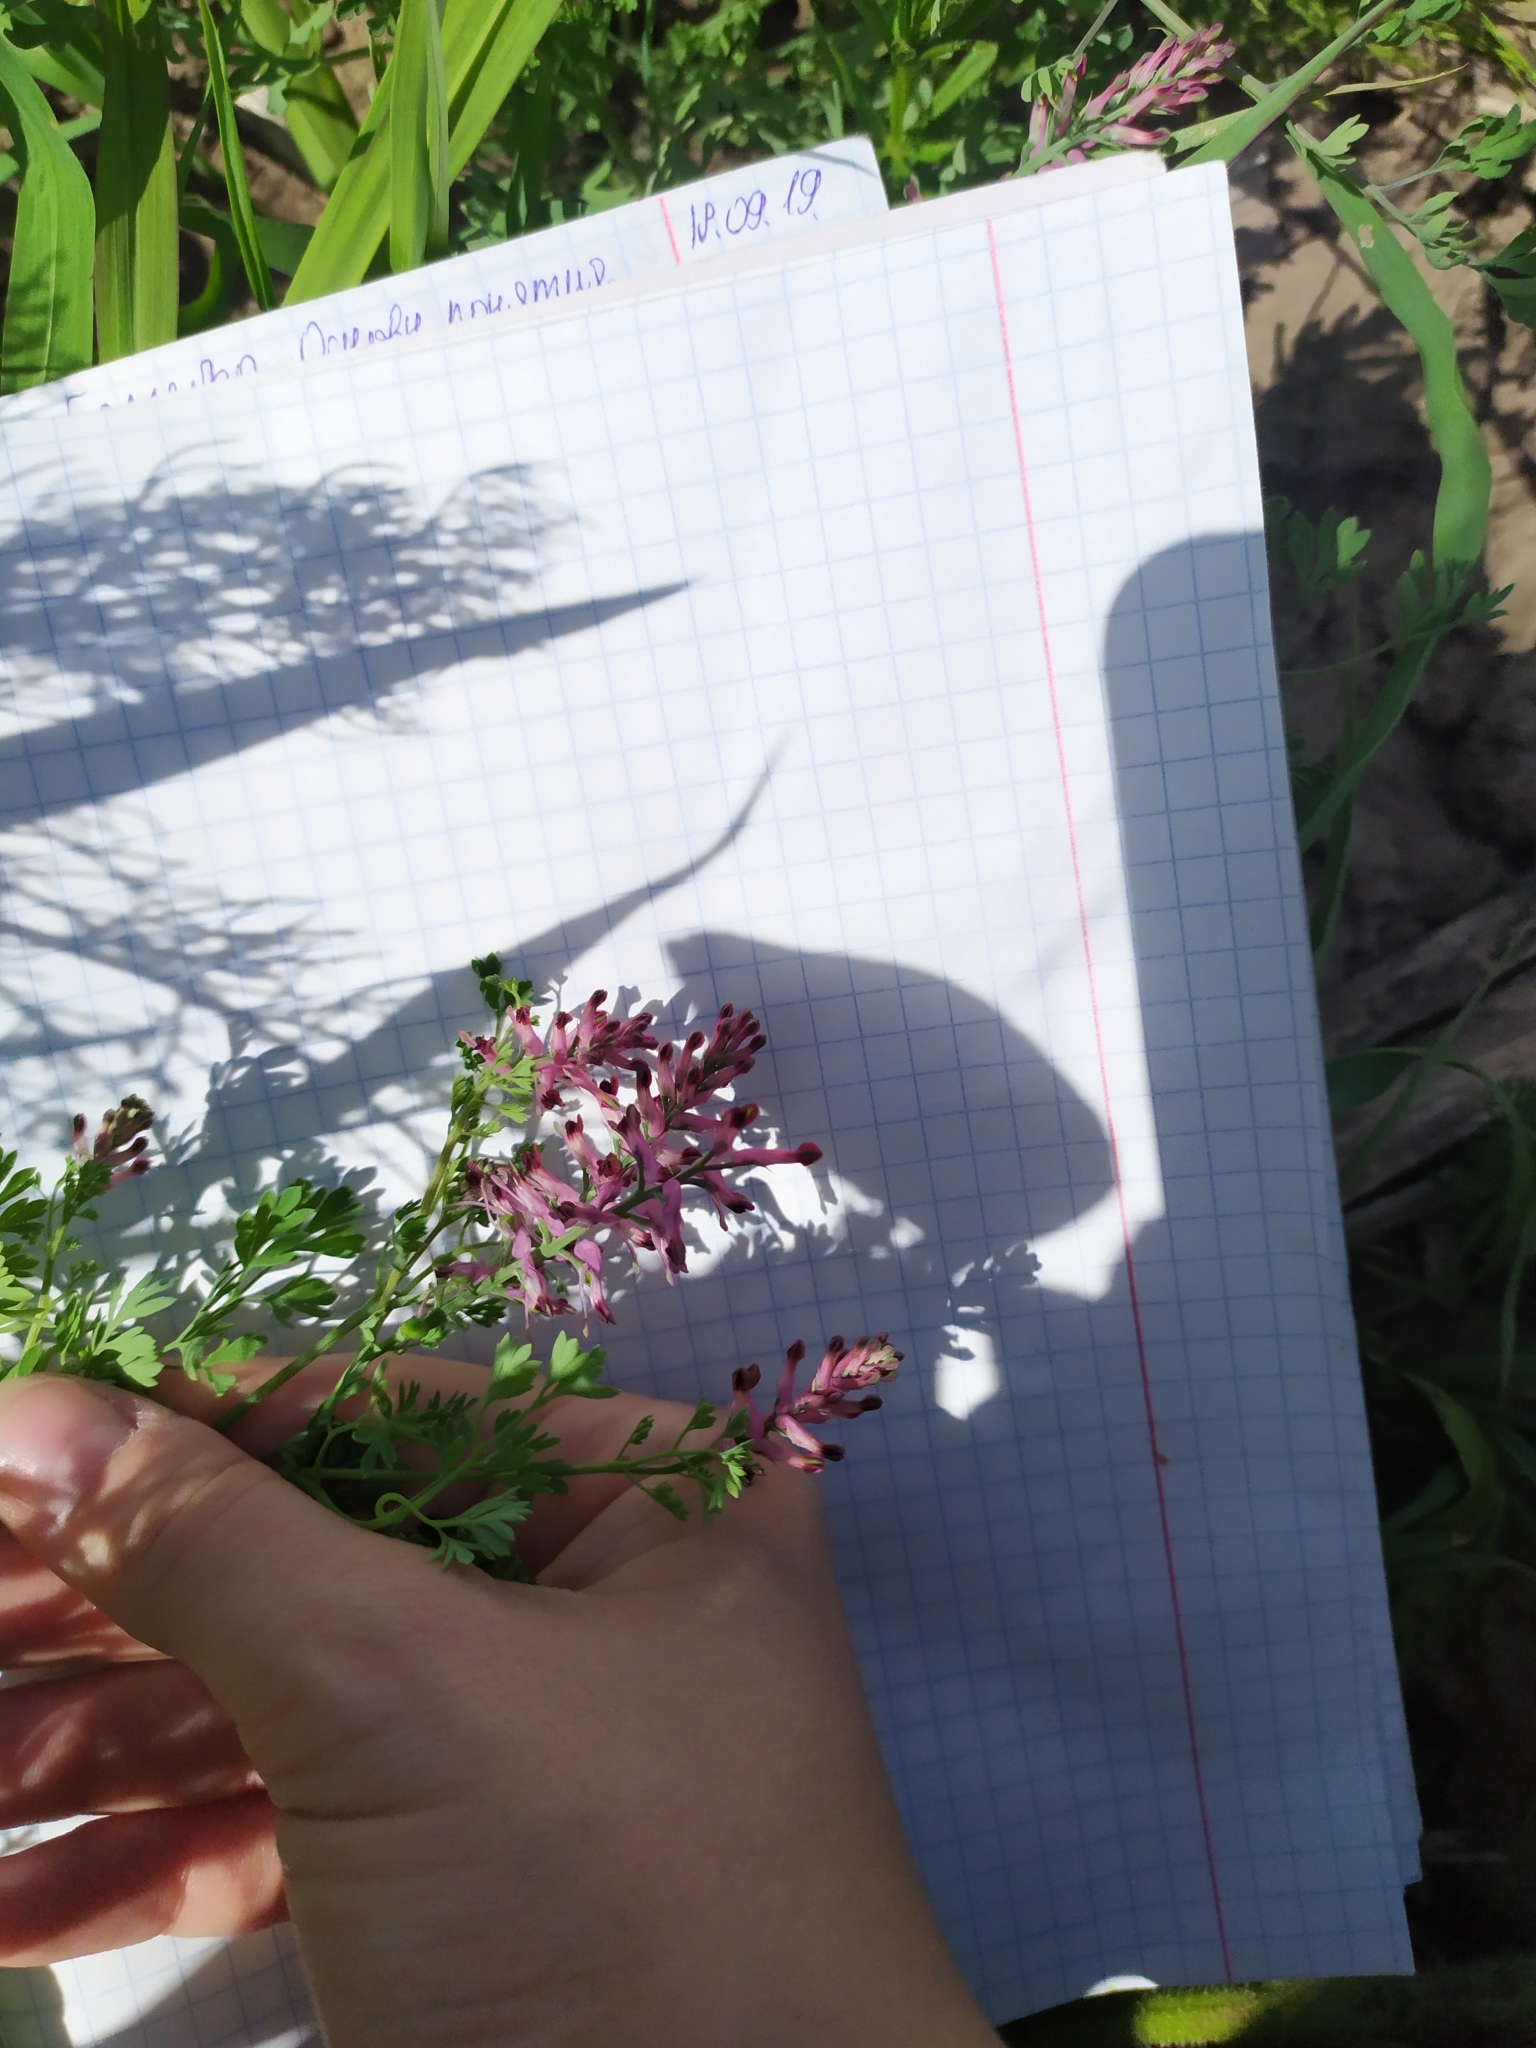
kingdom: Plantae
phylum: Tracheophyta
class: Magnoliopsida
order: Ranunculales
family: Papaveraceae
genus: Fumaria
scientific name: Fumaria officinalis
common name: Common fumitory
